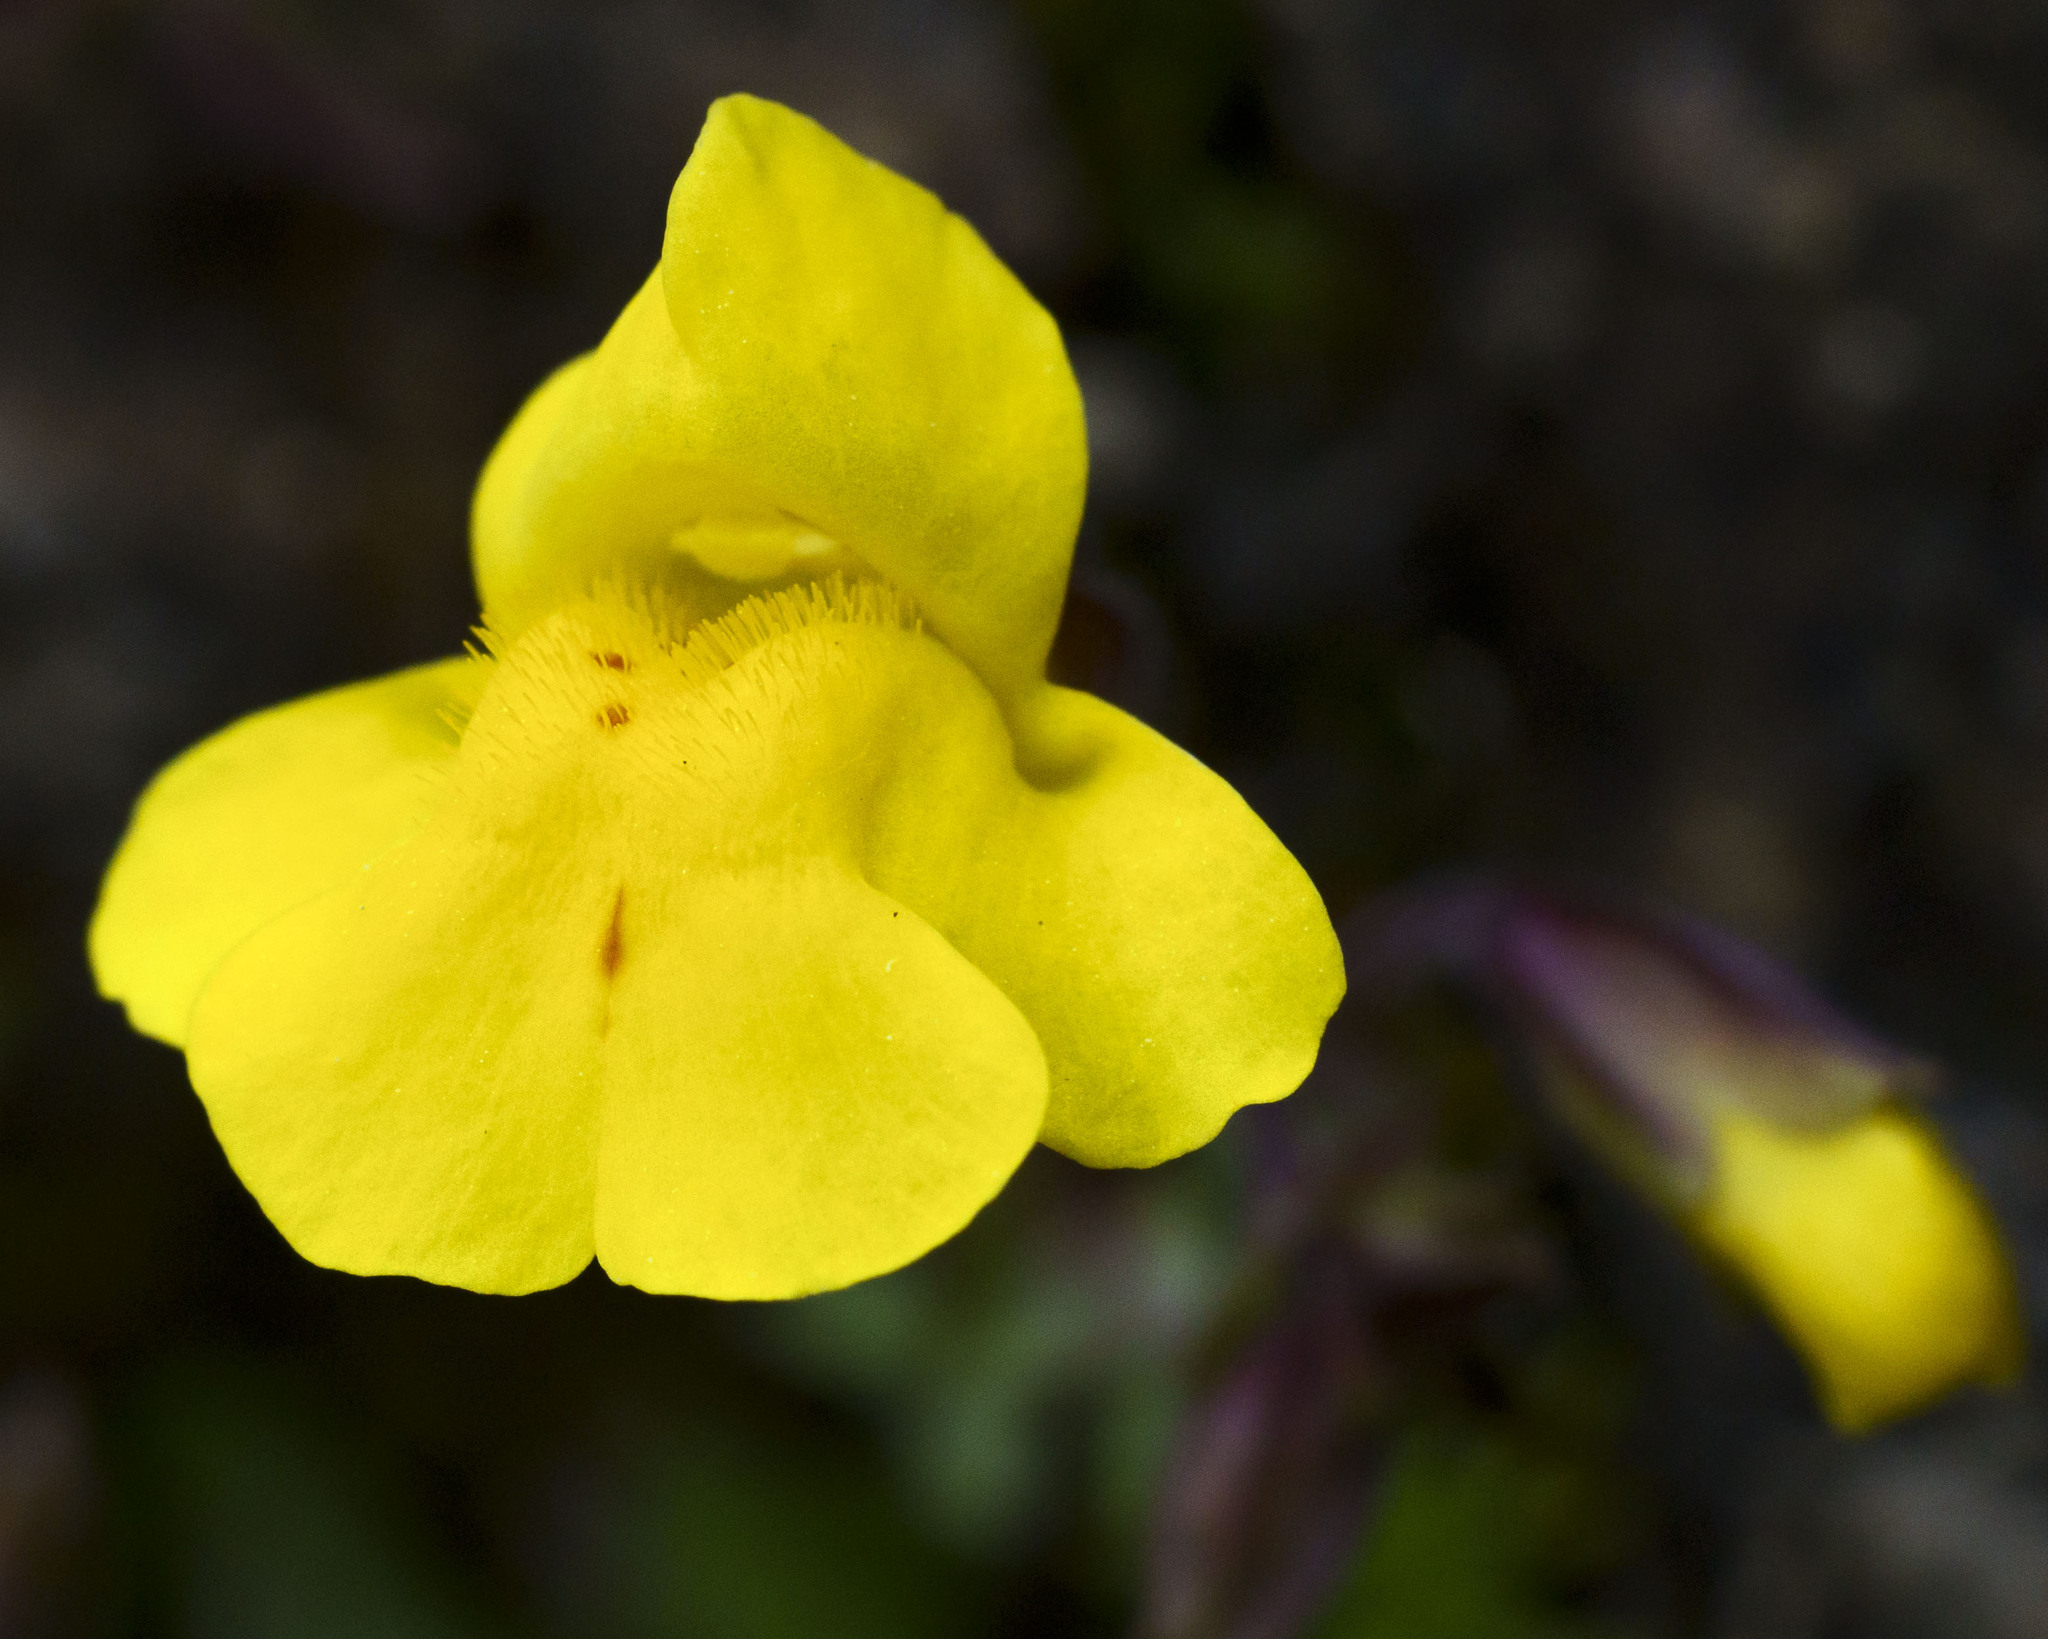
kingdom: Plantae
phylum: Tracheophyta
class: Magnoliopsida
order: Lamiales
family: Phrymaceae
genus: Erythranthe
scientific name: Erythranthe lagunensis
